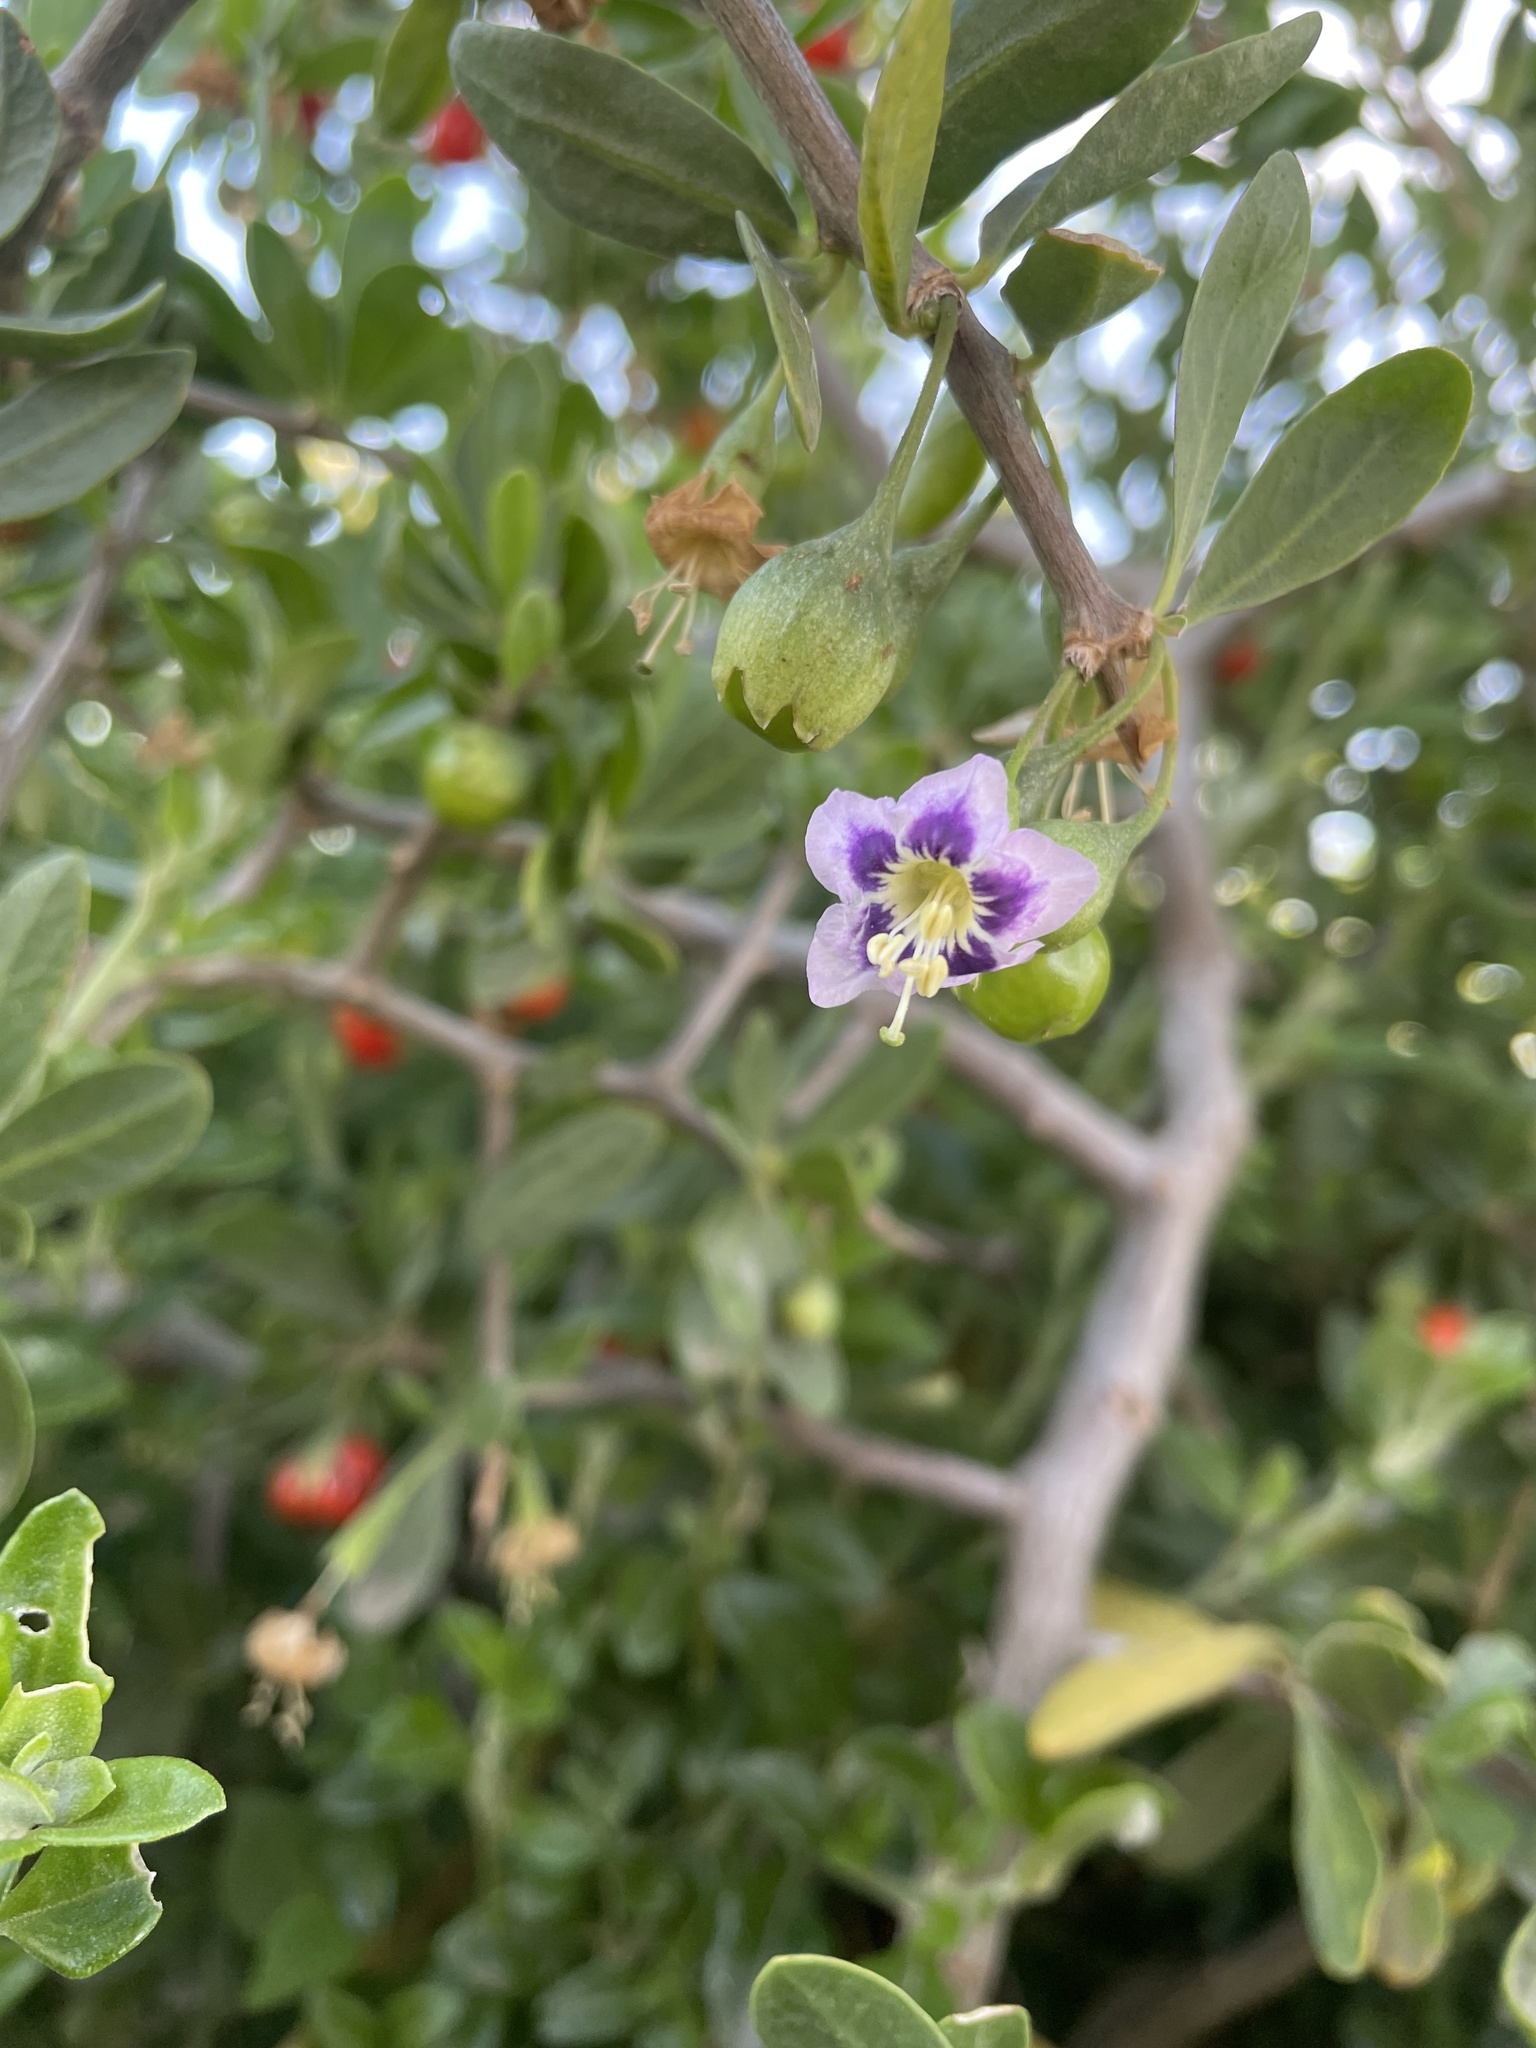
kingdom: Plantae
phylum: Tracheophyta
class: Magnoliopsida
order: Solanales
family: Solanaceae
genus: Lycium
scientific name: Lycium ferocissimum
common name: African boxthorn
